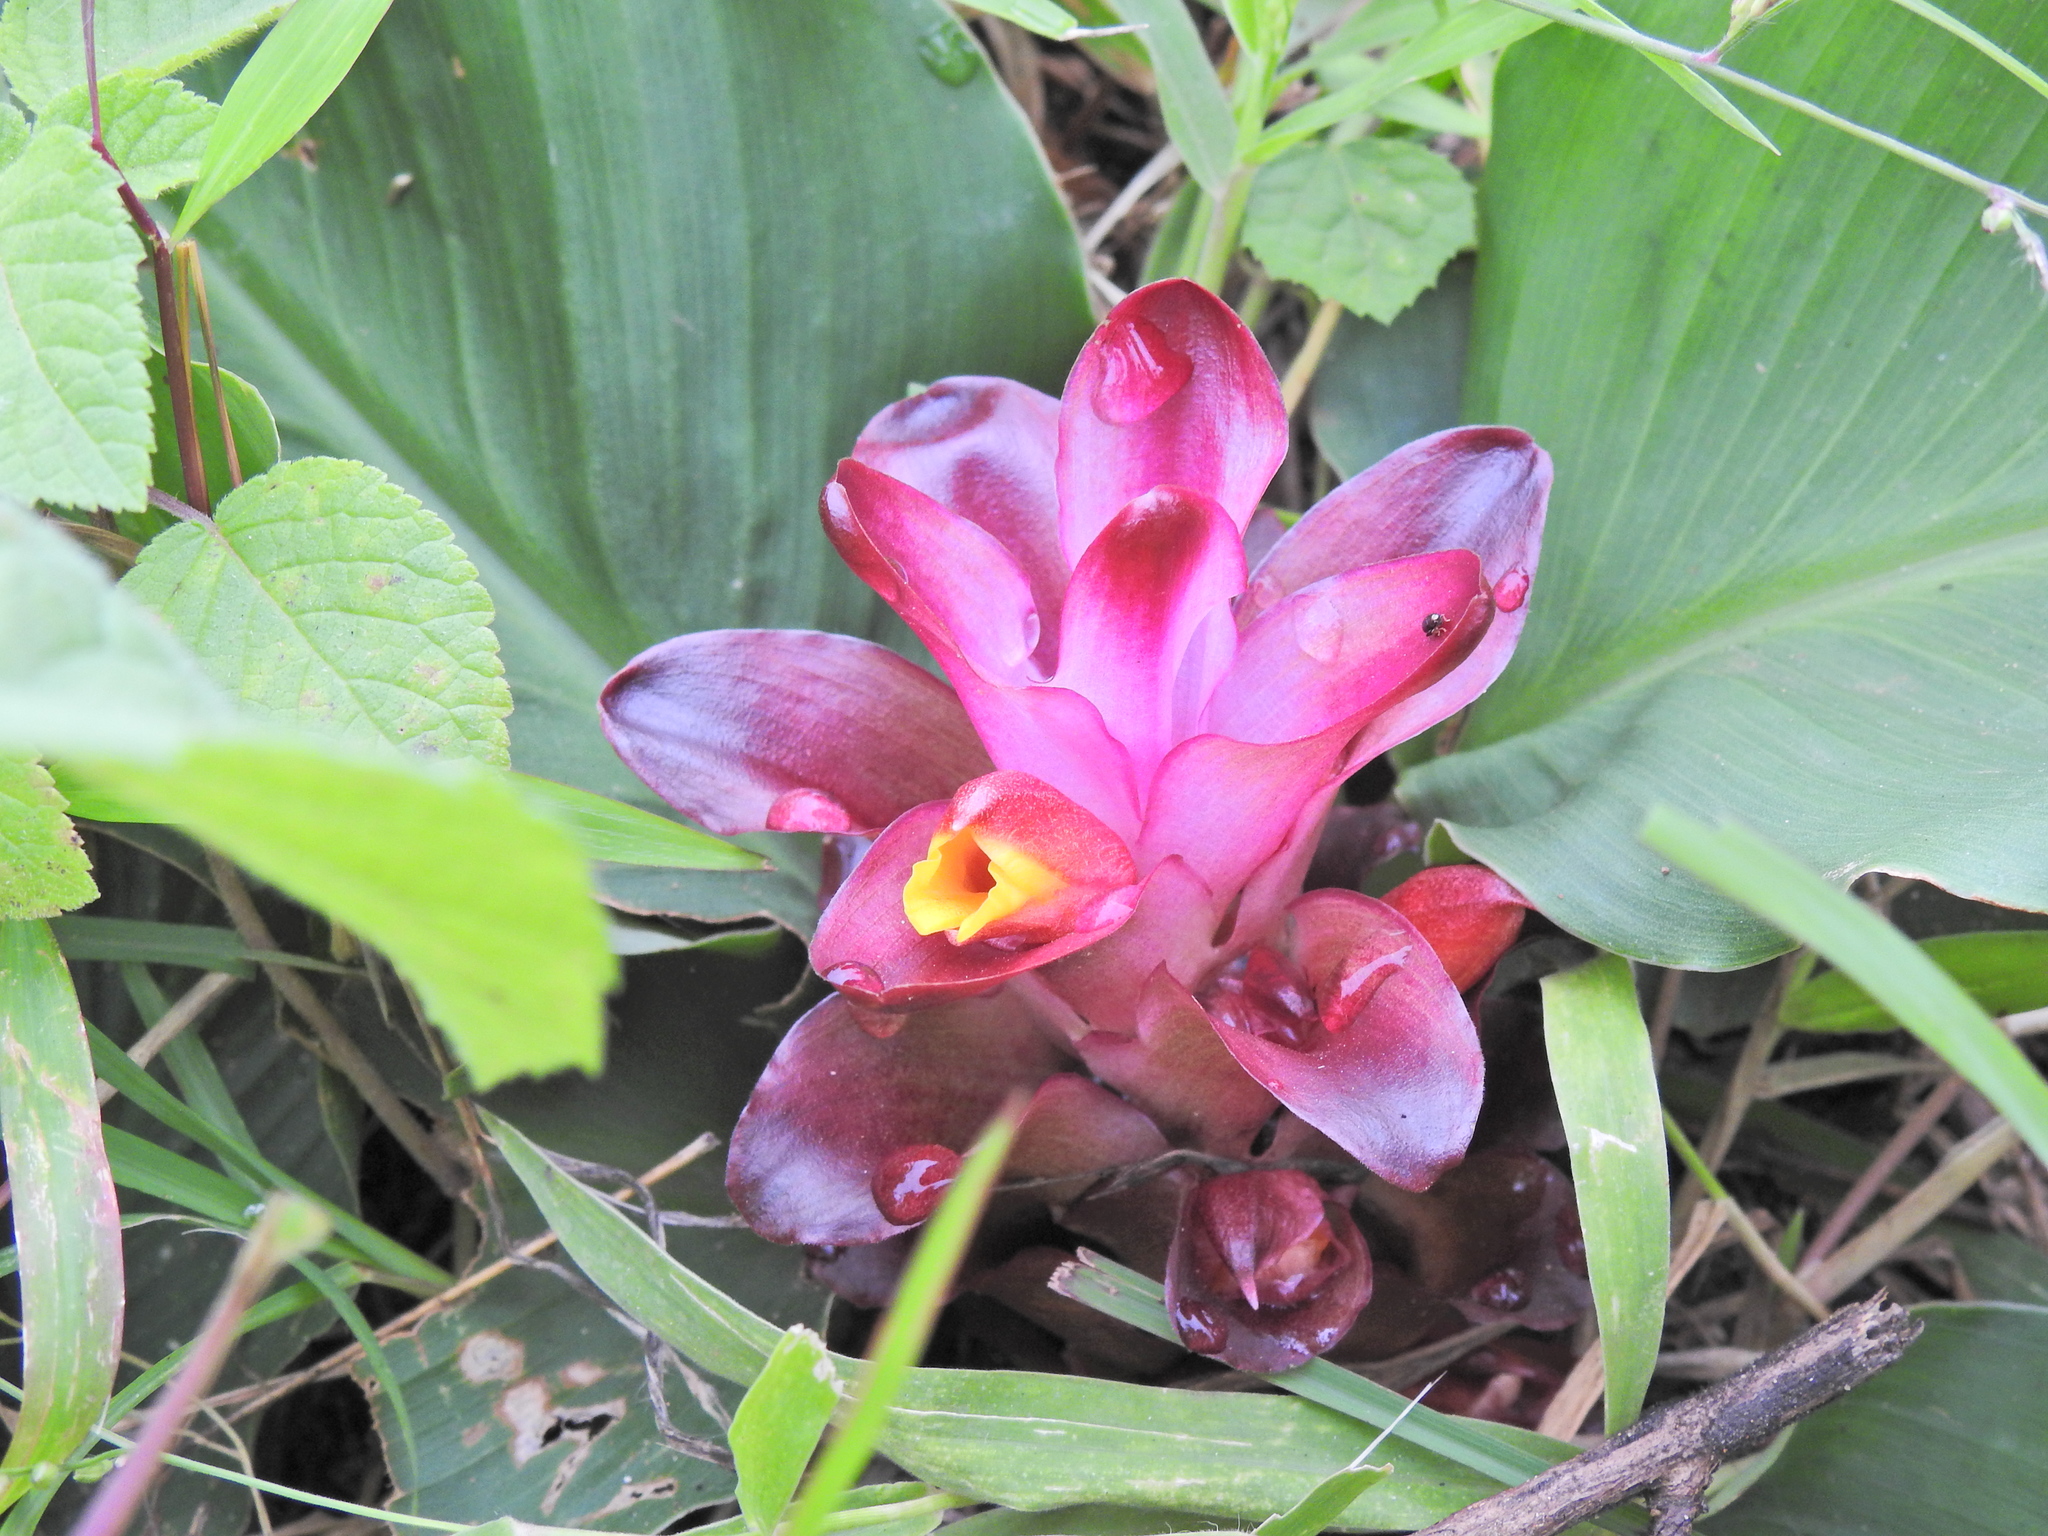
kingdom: Animalia
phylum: Chordata
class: Aves
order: Passeriformes
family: Oriolidae
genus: Oriolus
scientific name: Oriolus xanthornus
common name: Black-hooded oriole
